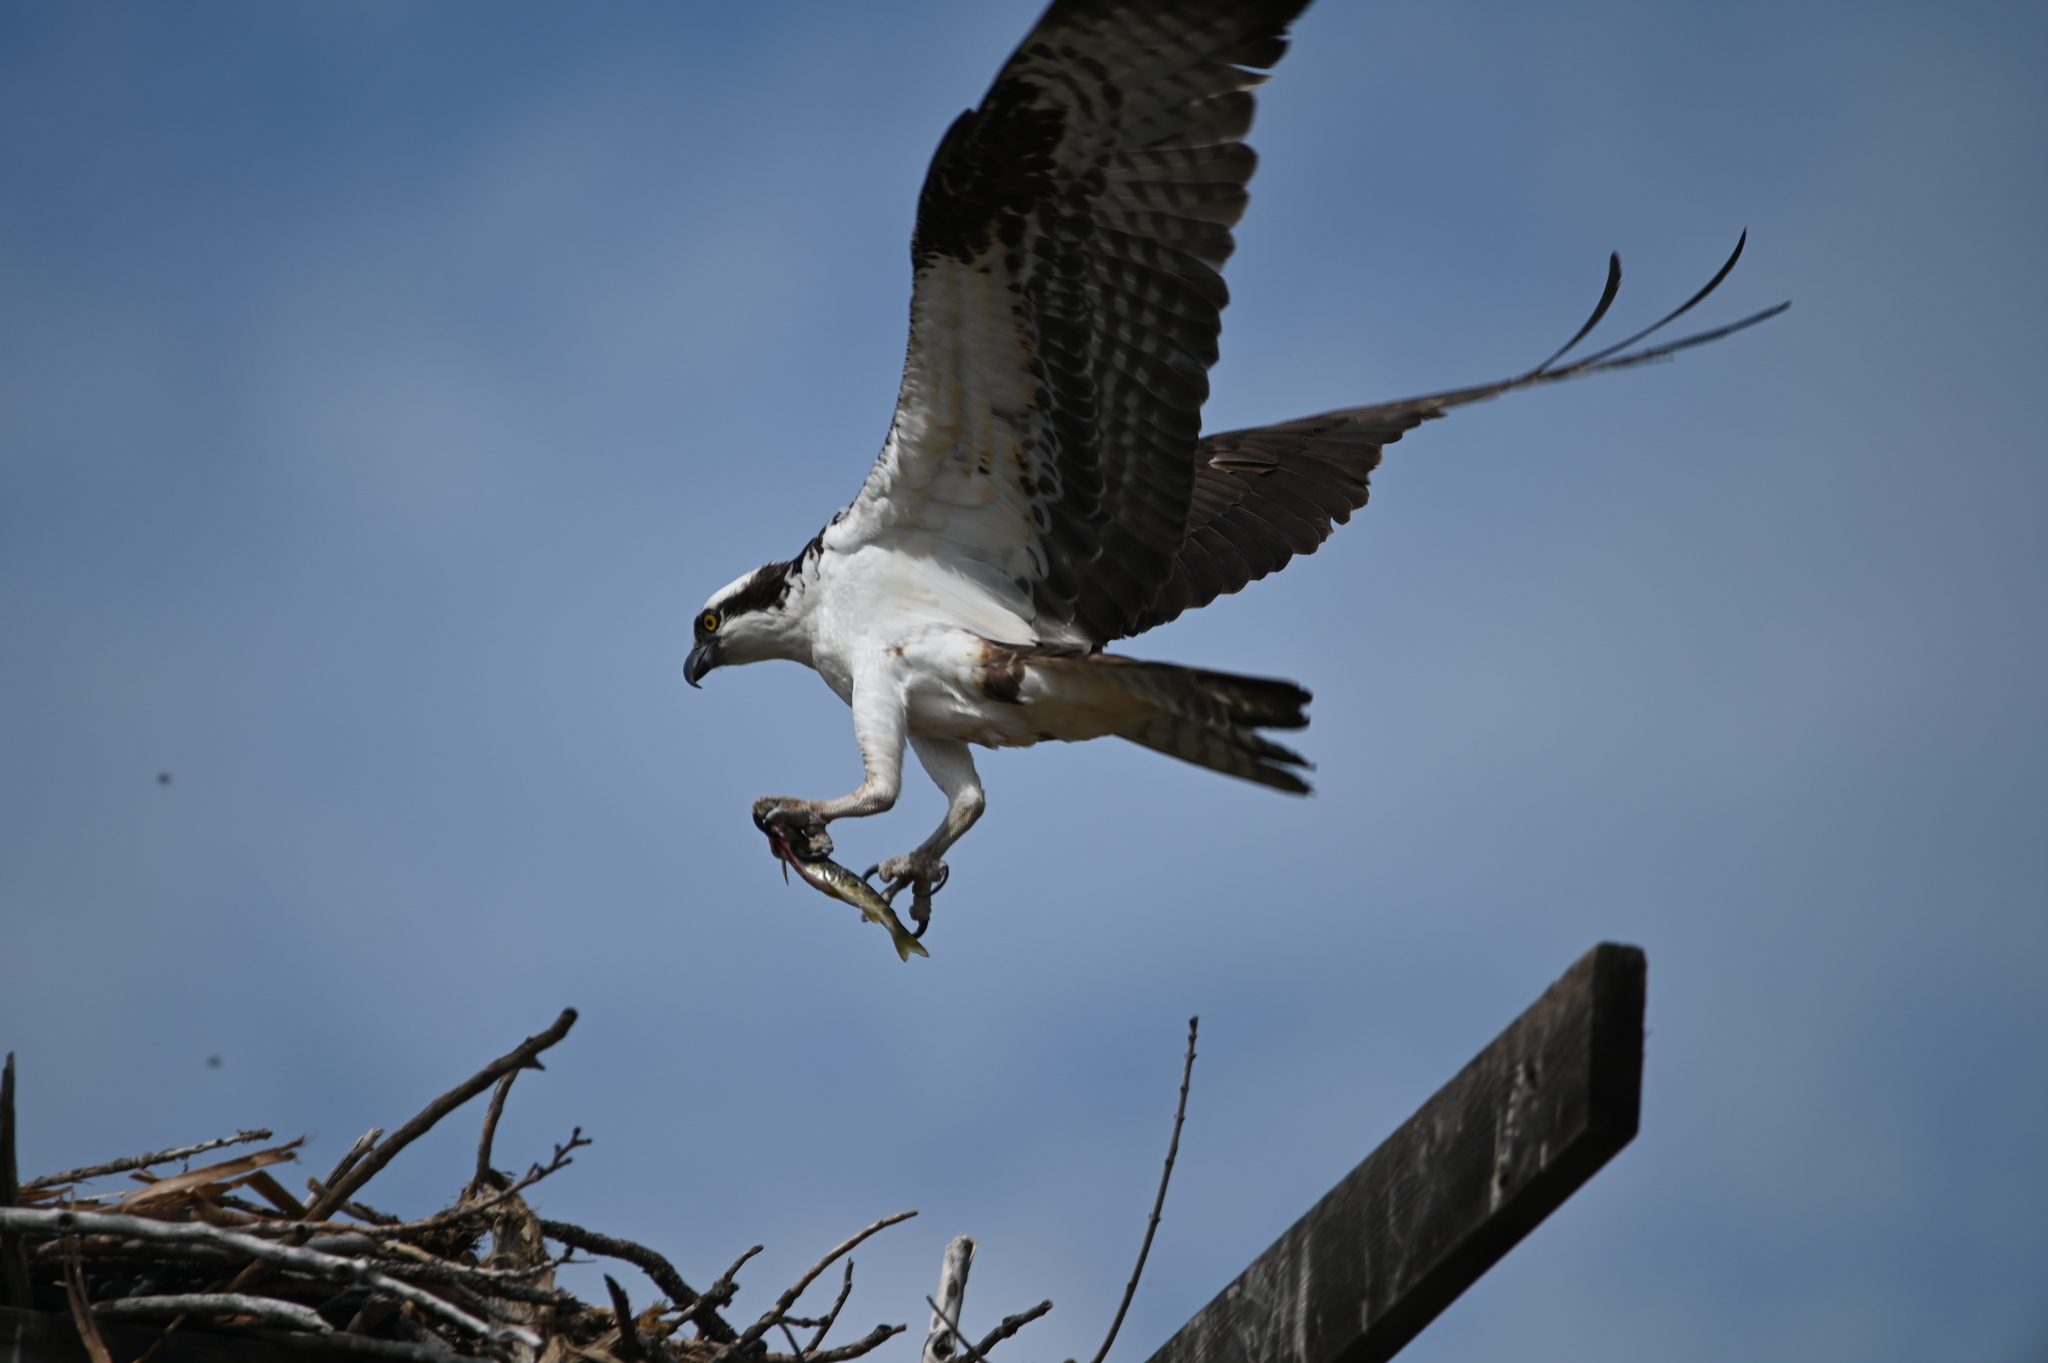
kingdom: Animalia
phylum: Chordata
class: Aves
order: Accipitriformes
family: Pandionidae
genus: Pandion
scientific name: Pandion haliaetus
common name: Osprey
